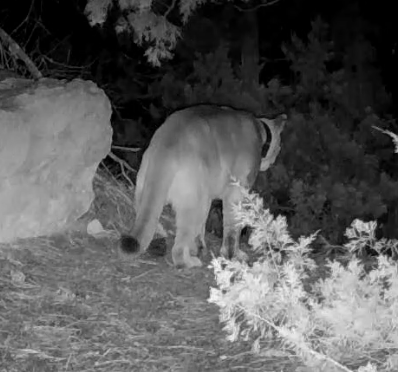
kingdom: Animalia
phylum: Chordata
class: Mammalia
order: Carnivora
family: Felidae
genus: Puma
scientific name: Puma concolor
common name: Puma
